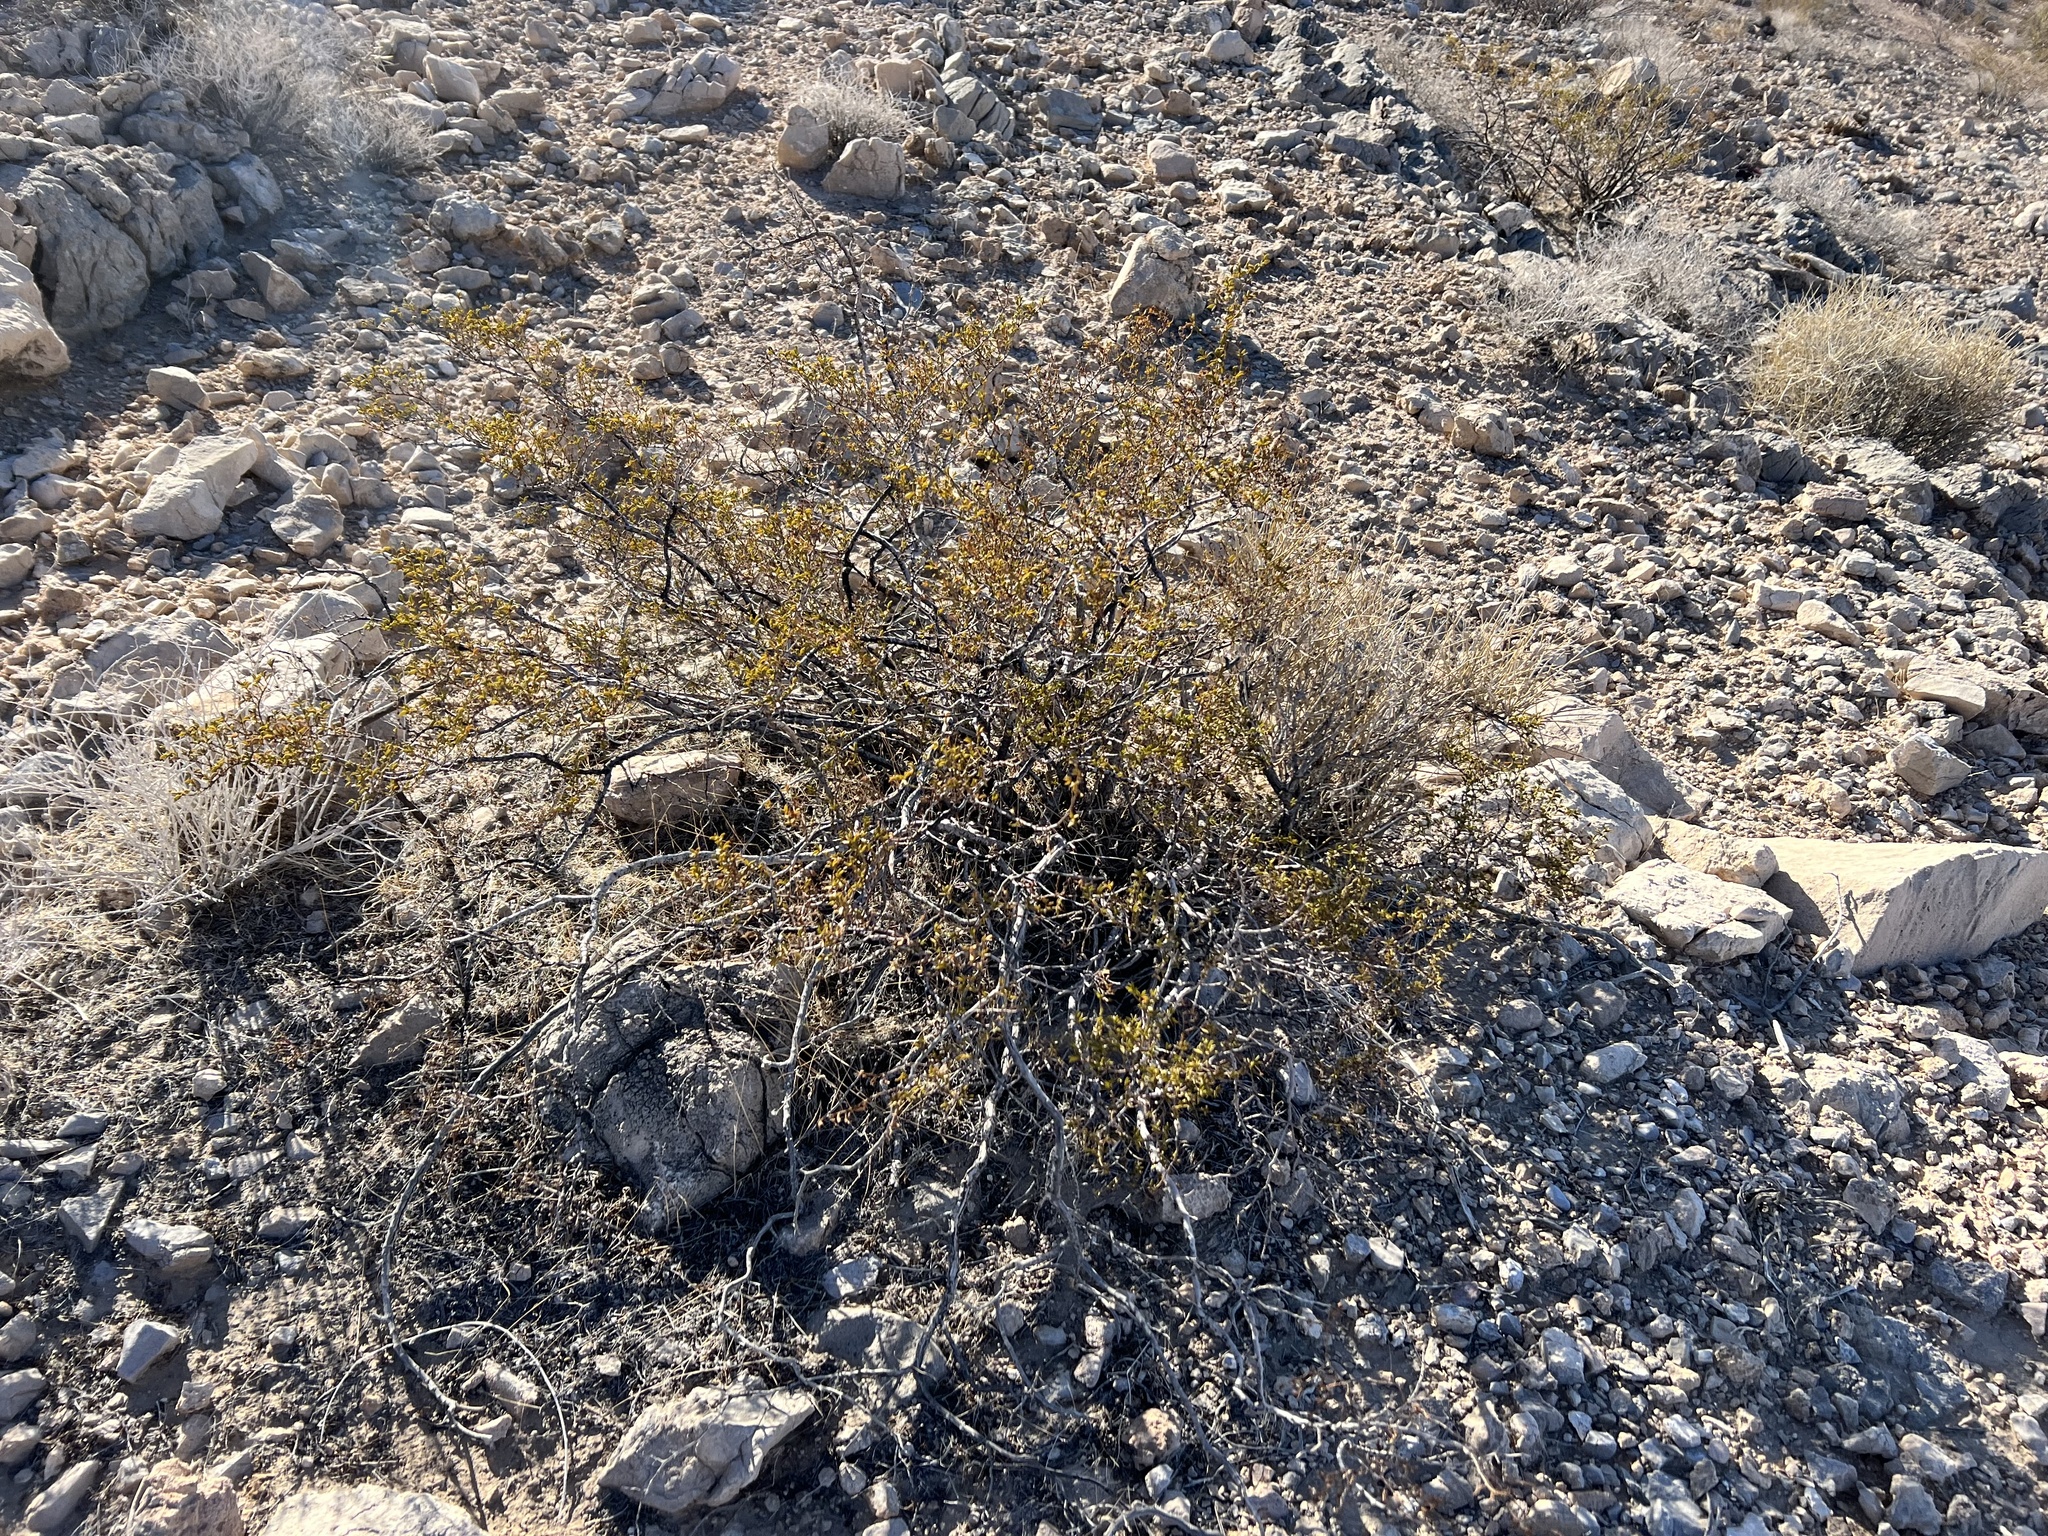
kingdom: Plantae
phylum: Tracheophyta
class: Magnoliopsida
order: Zygophyllales
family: Zygophyllaceae
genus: Larrea
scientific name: Larrea tridentata
